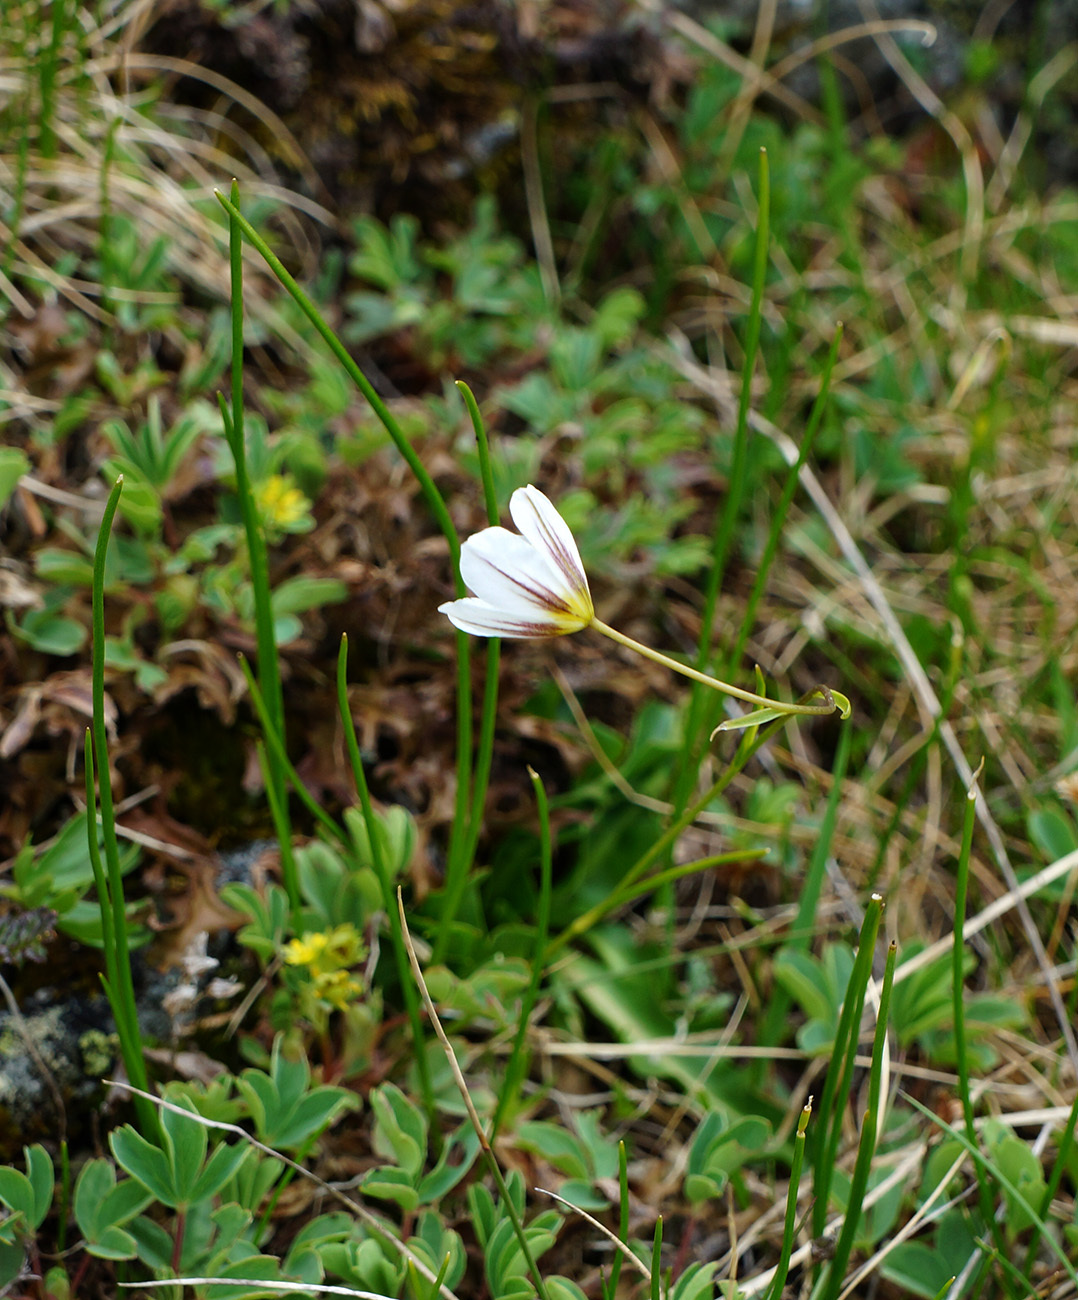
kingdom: Plantae
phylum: Tracheophyta
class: Liliopsida
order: Liliales
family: Liliaceae
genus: Gagea
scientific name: Gagea serotina
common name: Snowdon lily
